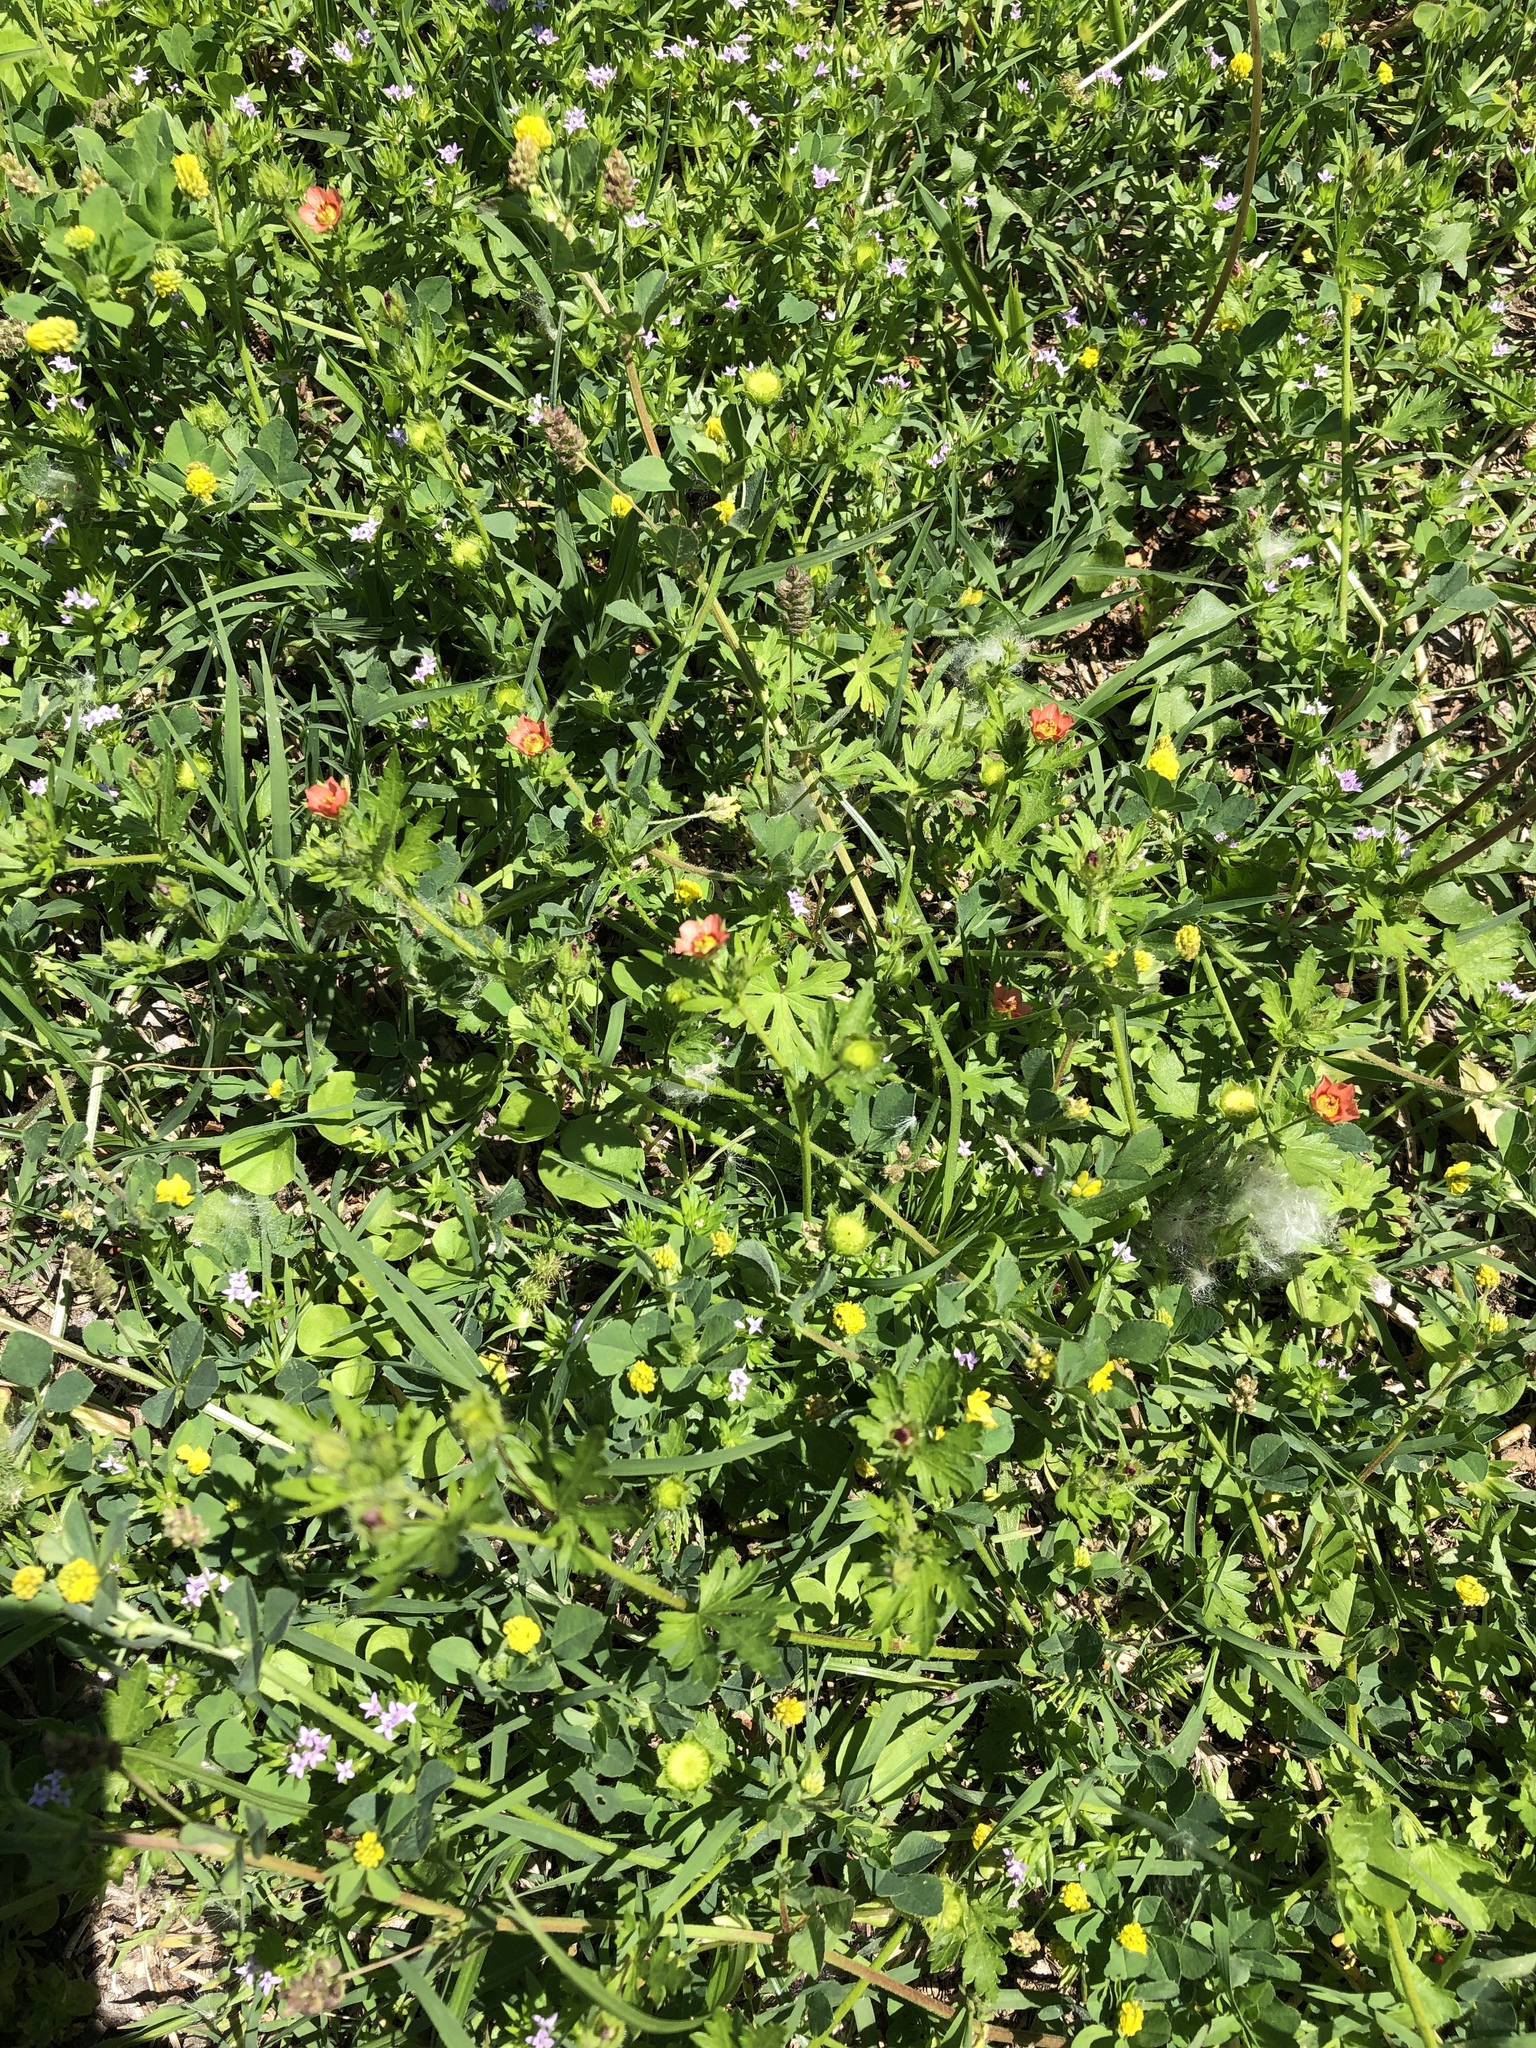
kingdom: Plantae
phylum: Tracheophyta
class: Magnoliopsida
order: Malvales
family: Malvaceae
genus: Modiola
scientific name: Modiola caroliniana
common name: Carolina bristlemallow
